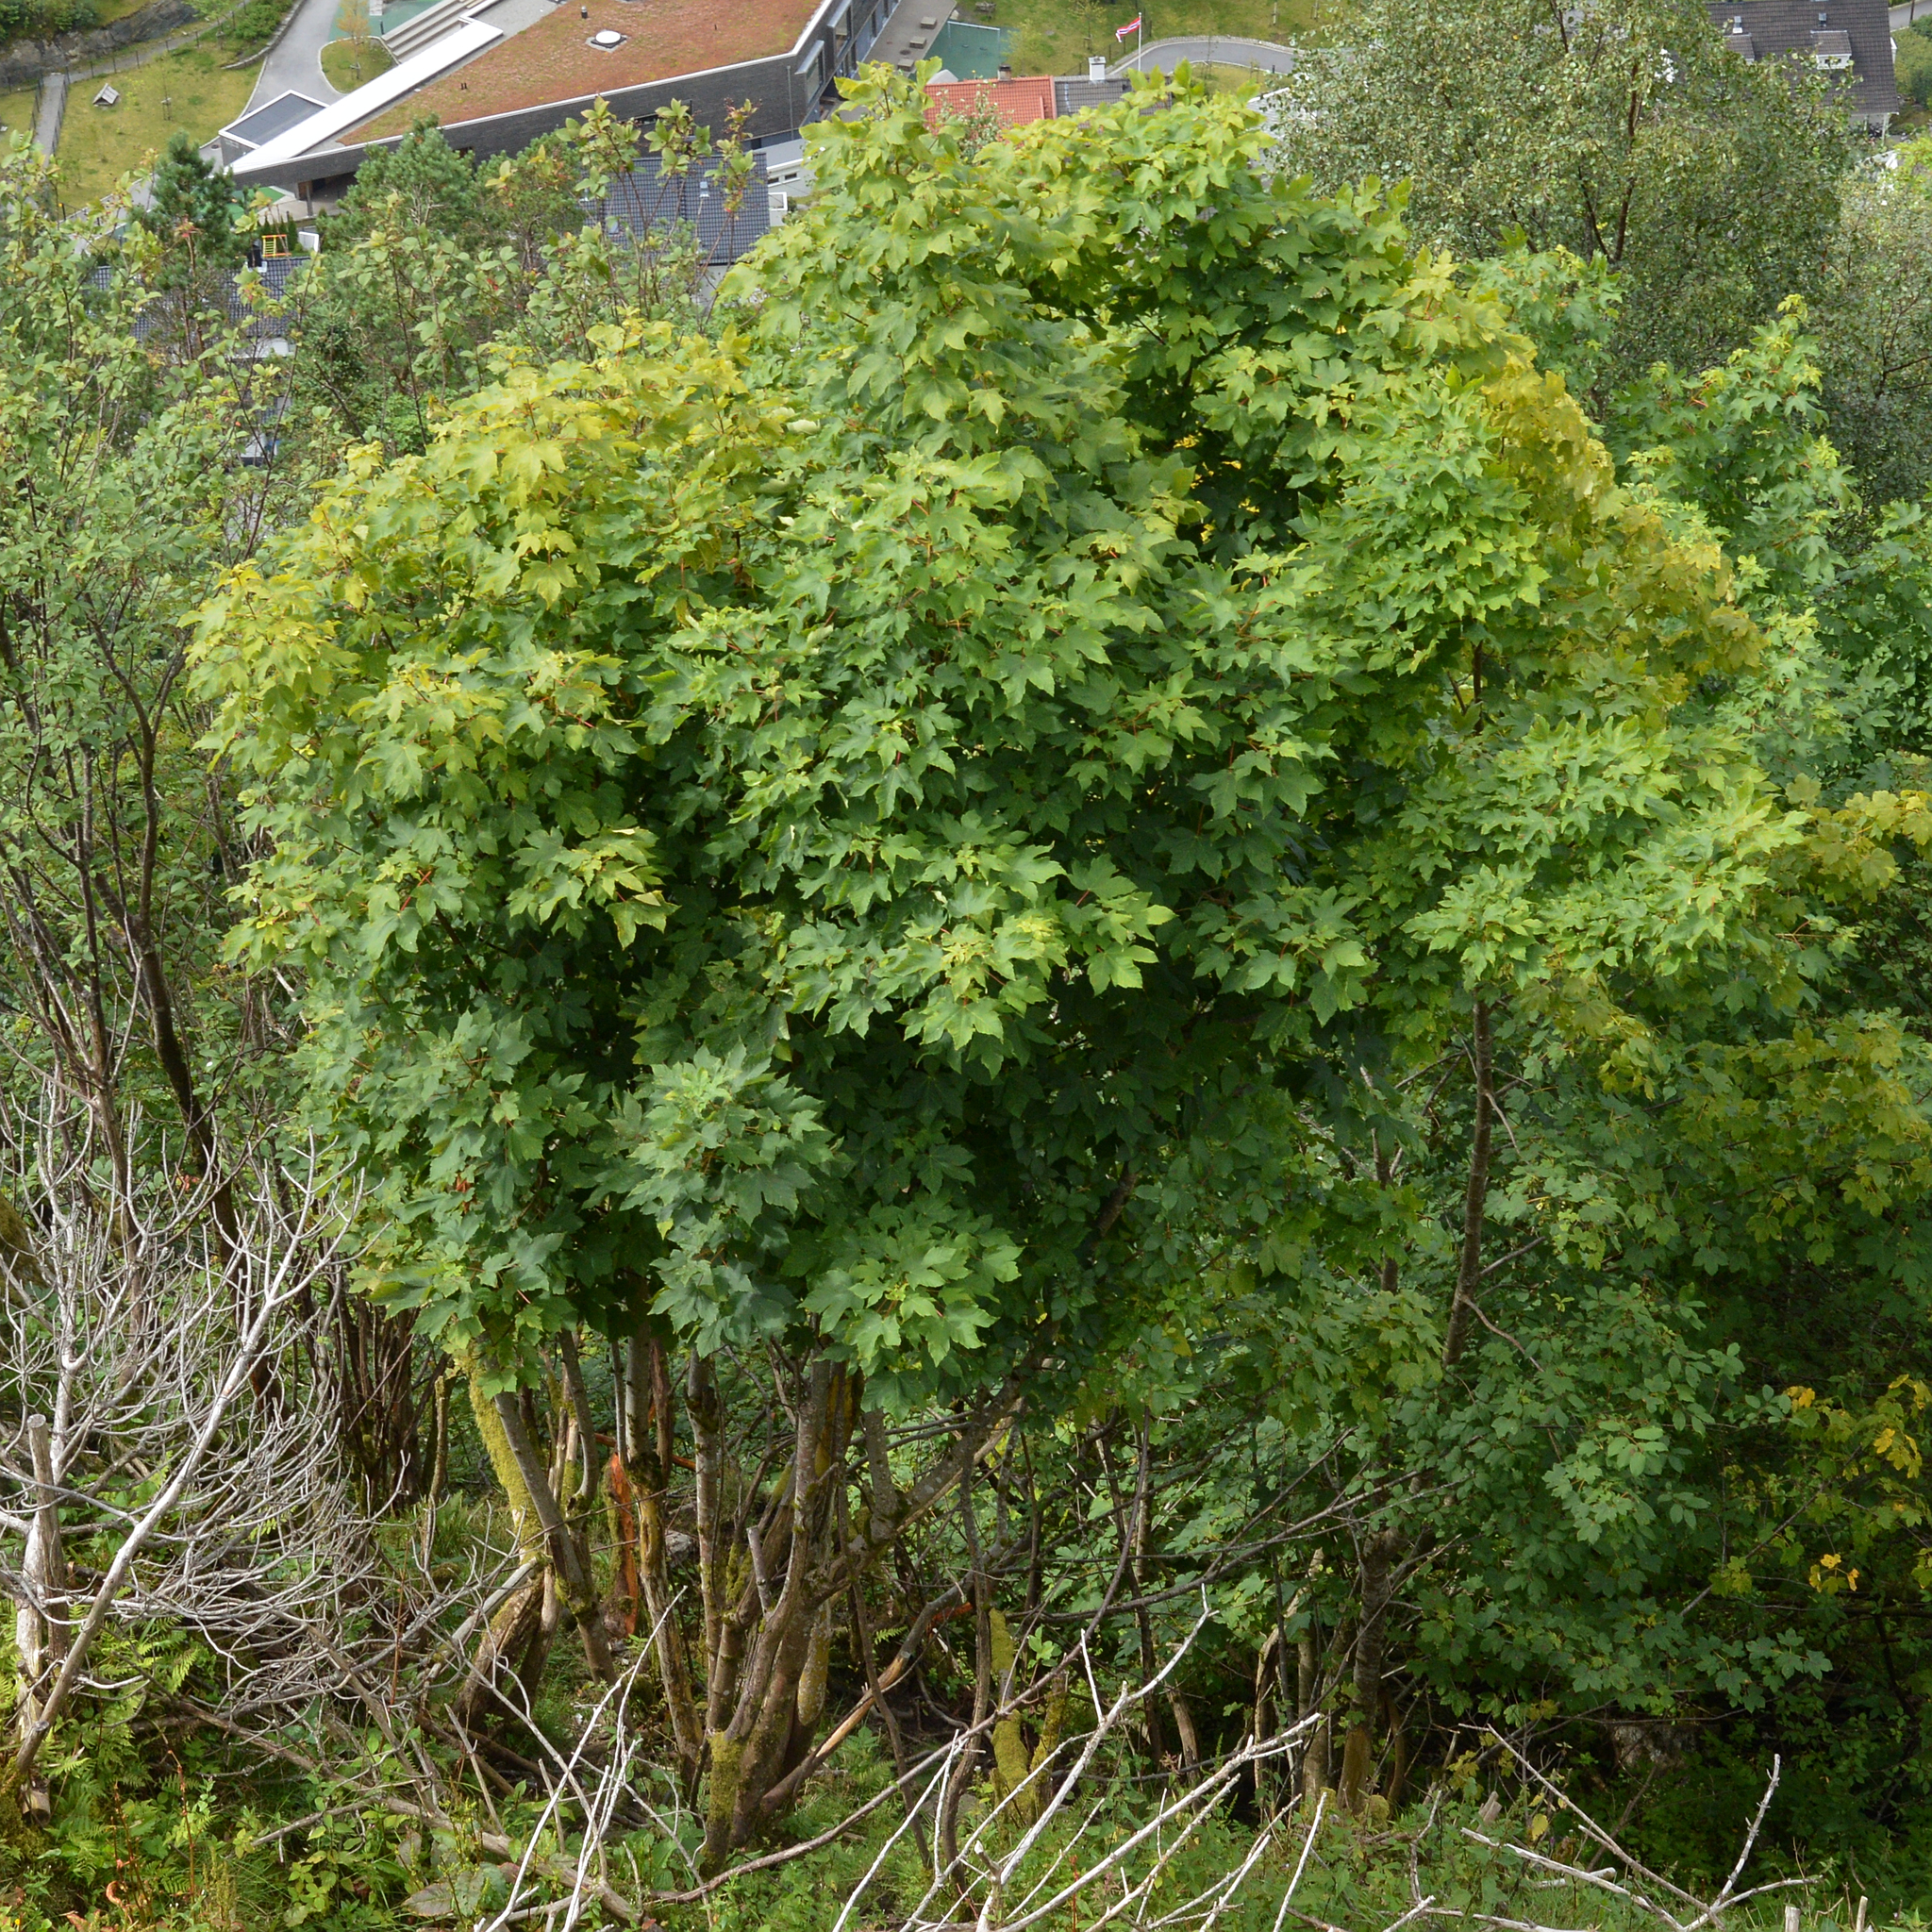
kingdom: Plantae
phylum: Tracheophyta
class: Magnoliopsida
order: Sapindales
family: Sapindaceae
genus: Acer
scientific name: Acer pseudoplatanus
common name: Sycamore
